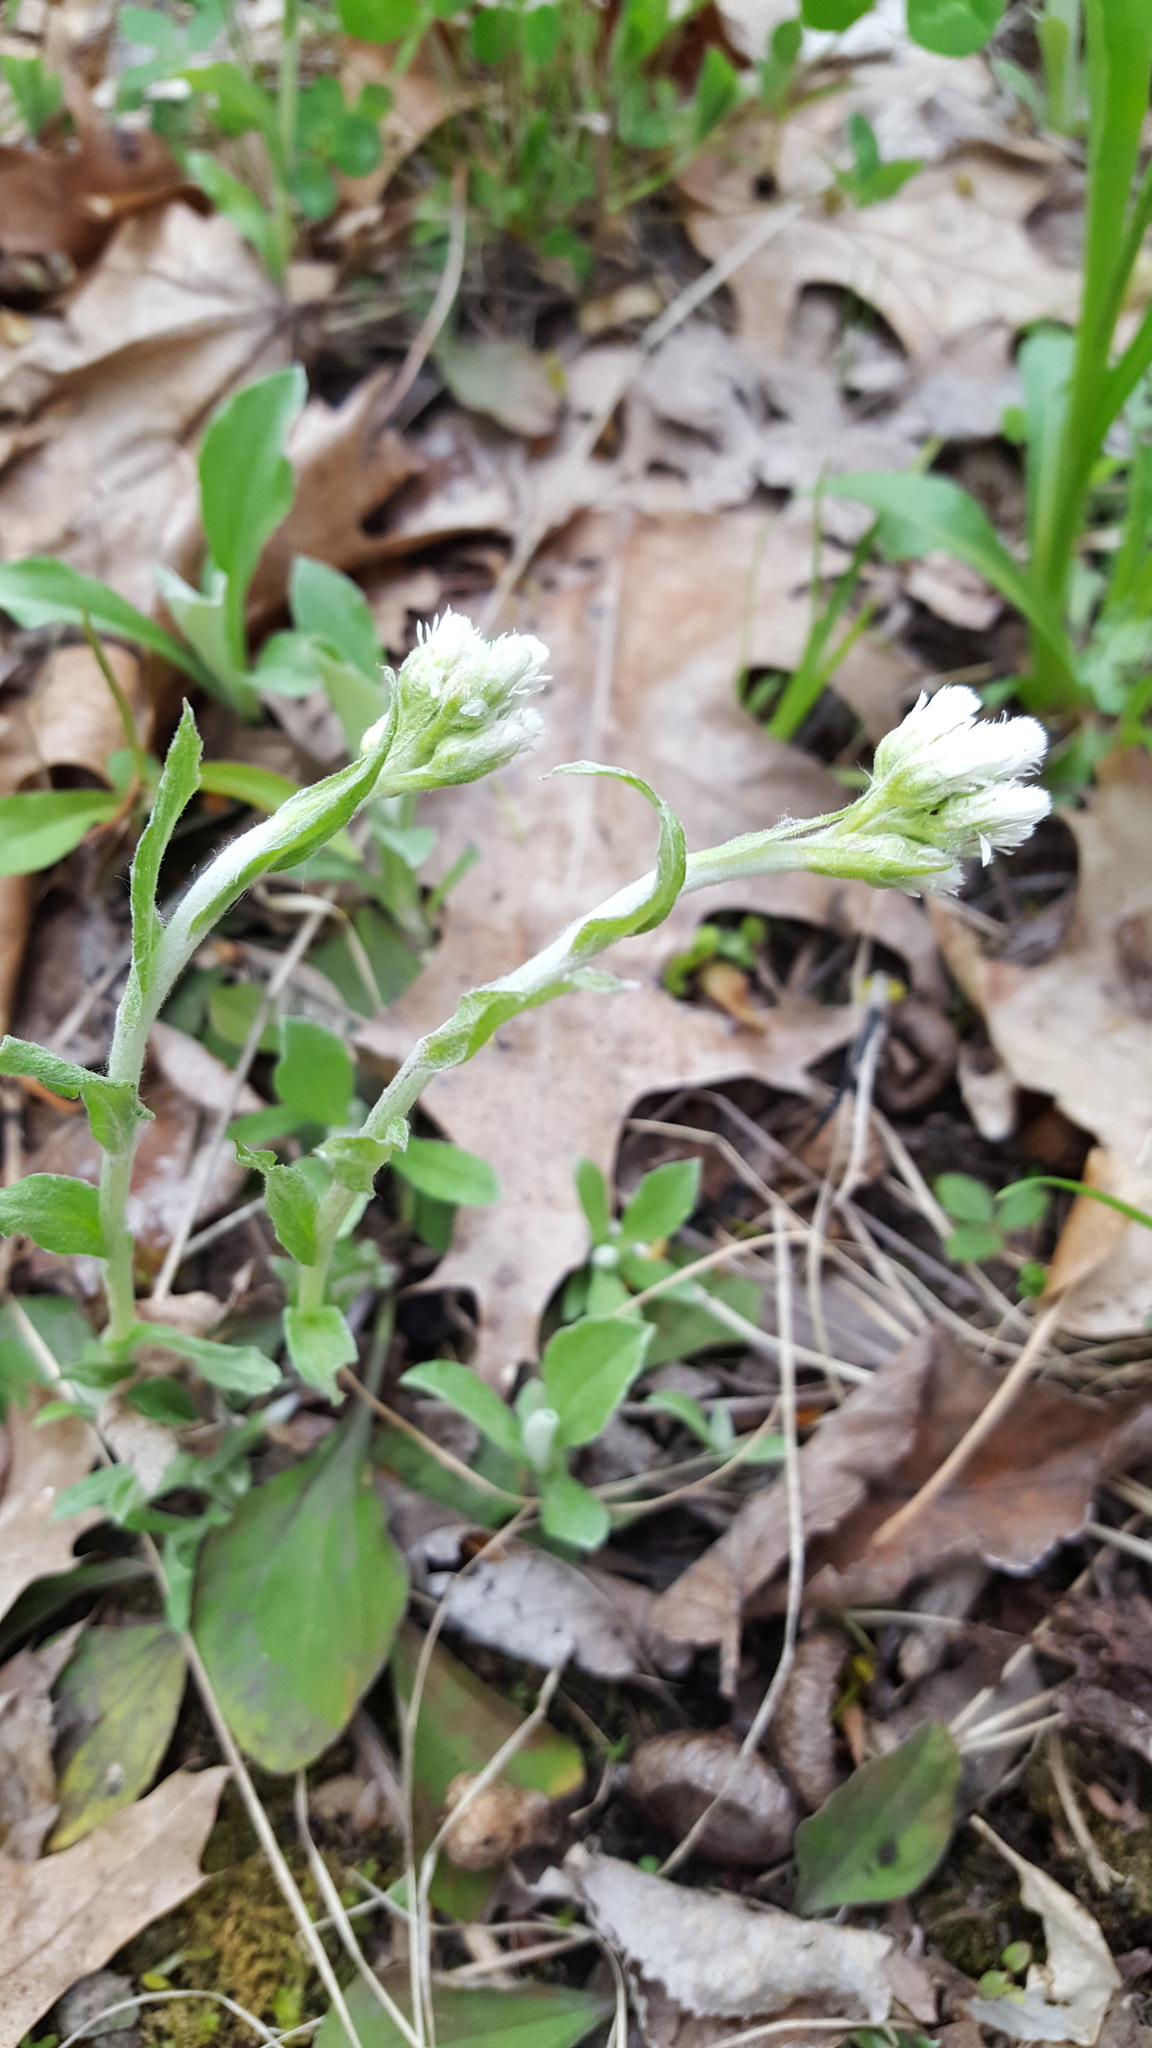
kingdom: Plantae
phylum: Tracheophyta
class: Magnoliopsida
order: Asterales
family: Asteraceae
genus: Antennaria
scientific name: Antennaria plantaginifolia
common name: Plantain-leaved pussytoes
